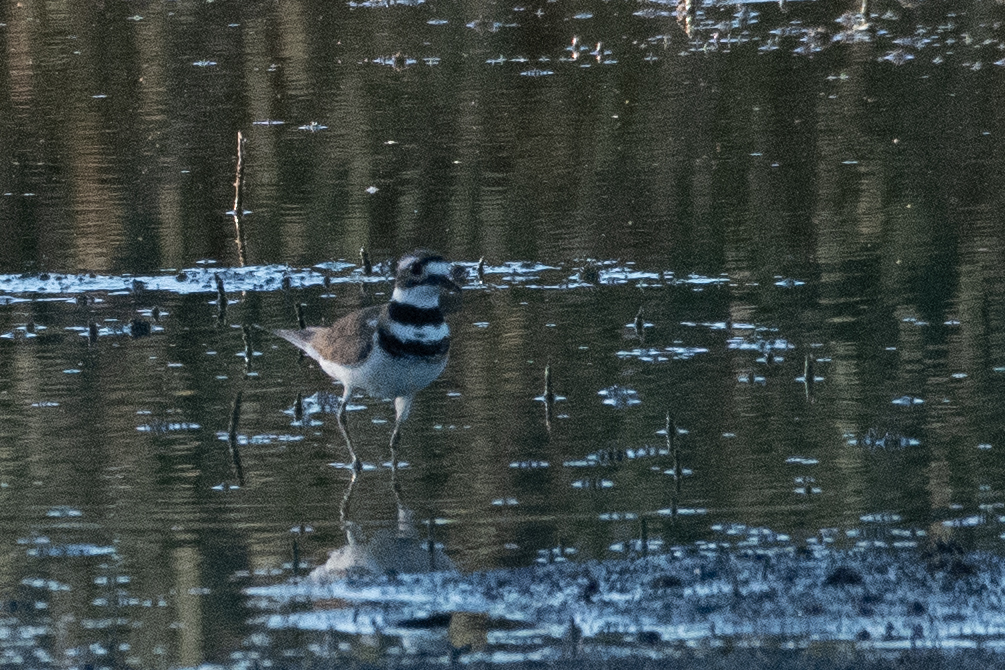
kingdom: Animalia
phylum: Chordata
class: Aves
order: Charadriiformes
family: Charadriidae
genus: Charadrius
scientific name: Charadrius vociferus
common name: Killdeer
